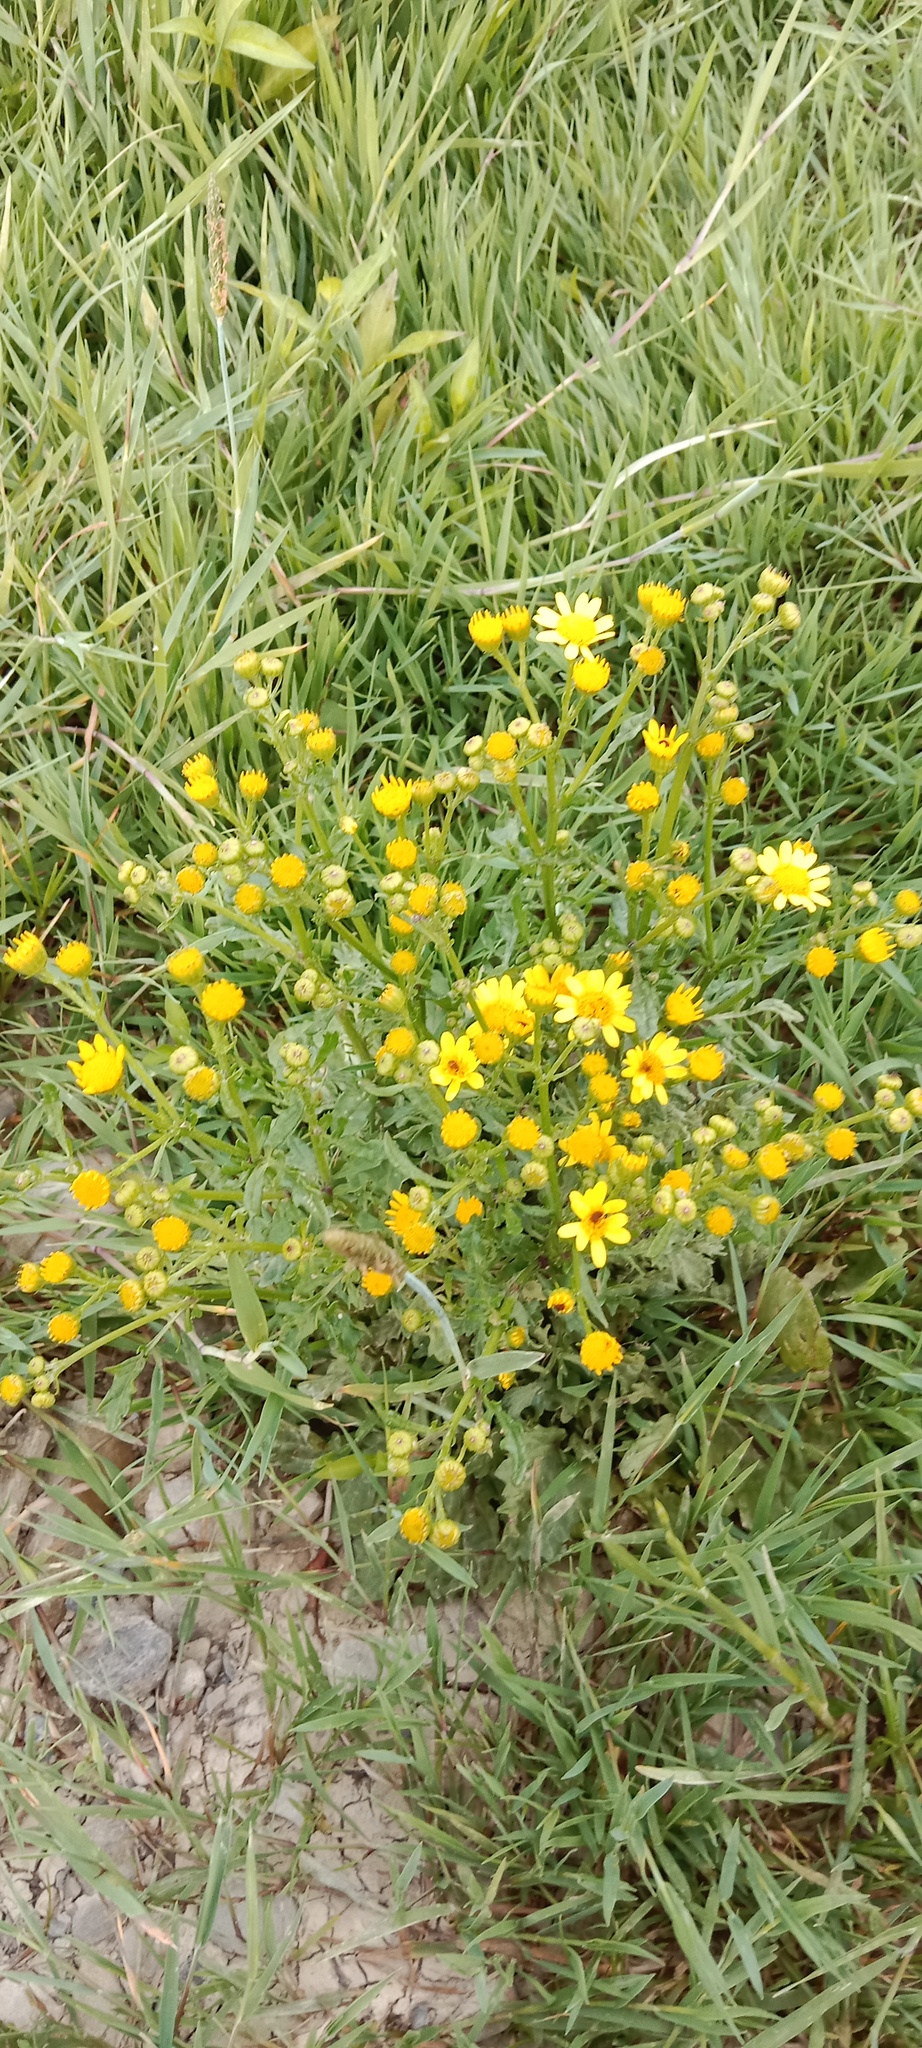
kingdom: Plantae
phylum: Tracheophyta
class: Magnoliopsida
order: Asterales
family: Asteraceae
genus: Jacobaea
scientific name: Jacobaea vulgaris
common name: Stinking willie
